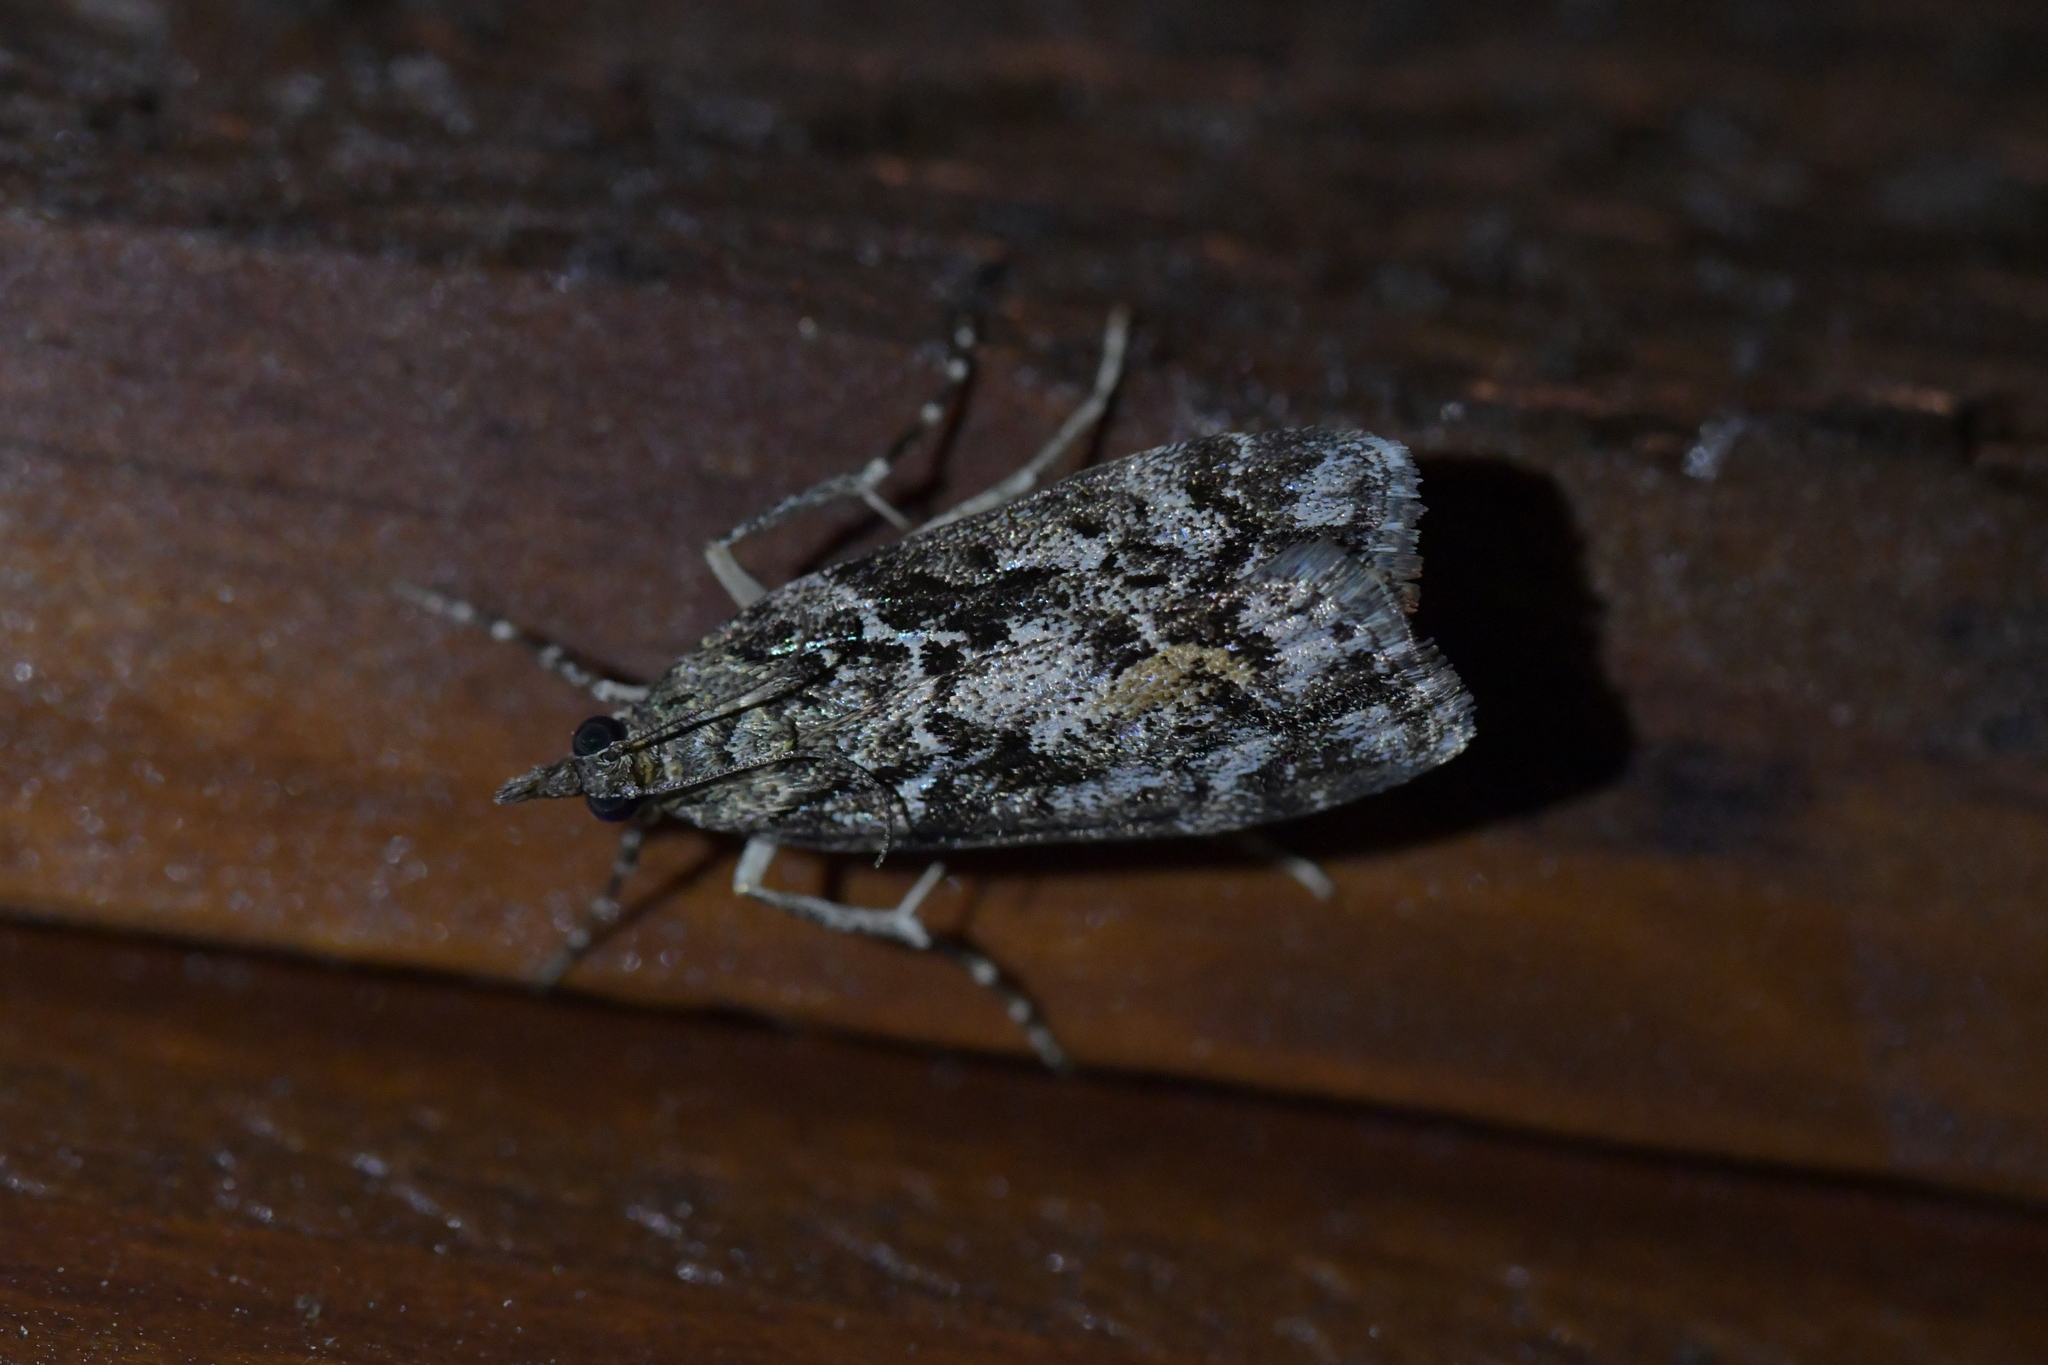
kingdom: Animalia
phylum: Arthropoda
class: Insecta
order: Lepidoptera
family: Crambidae
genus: Eudonia
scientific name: Eudonia submarginalis
